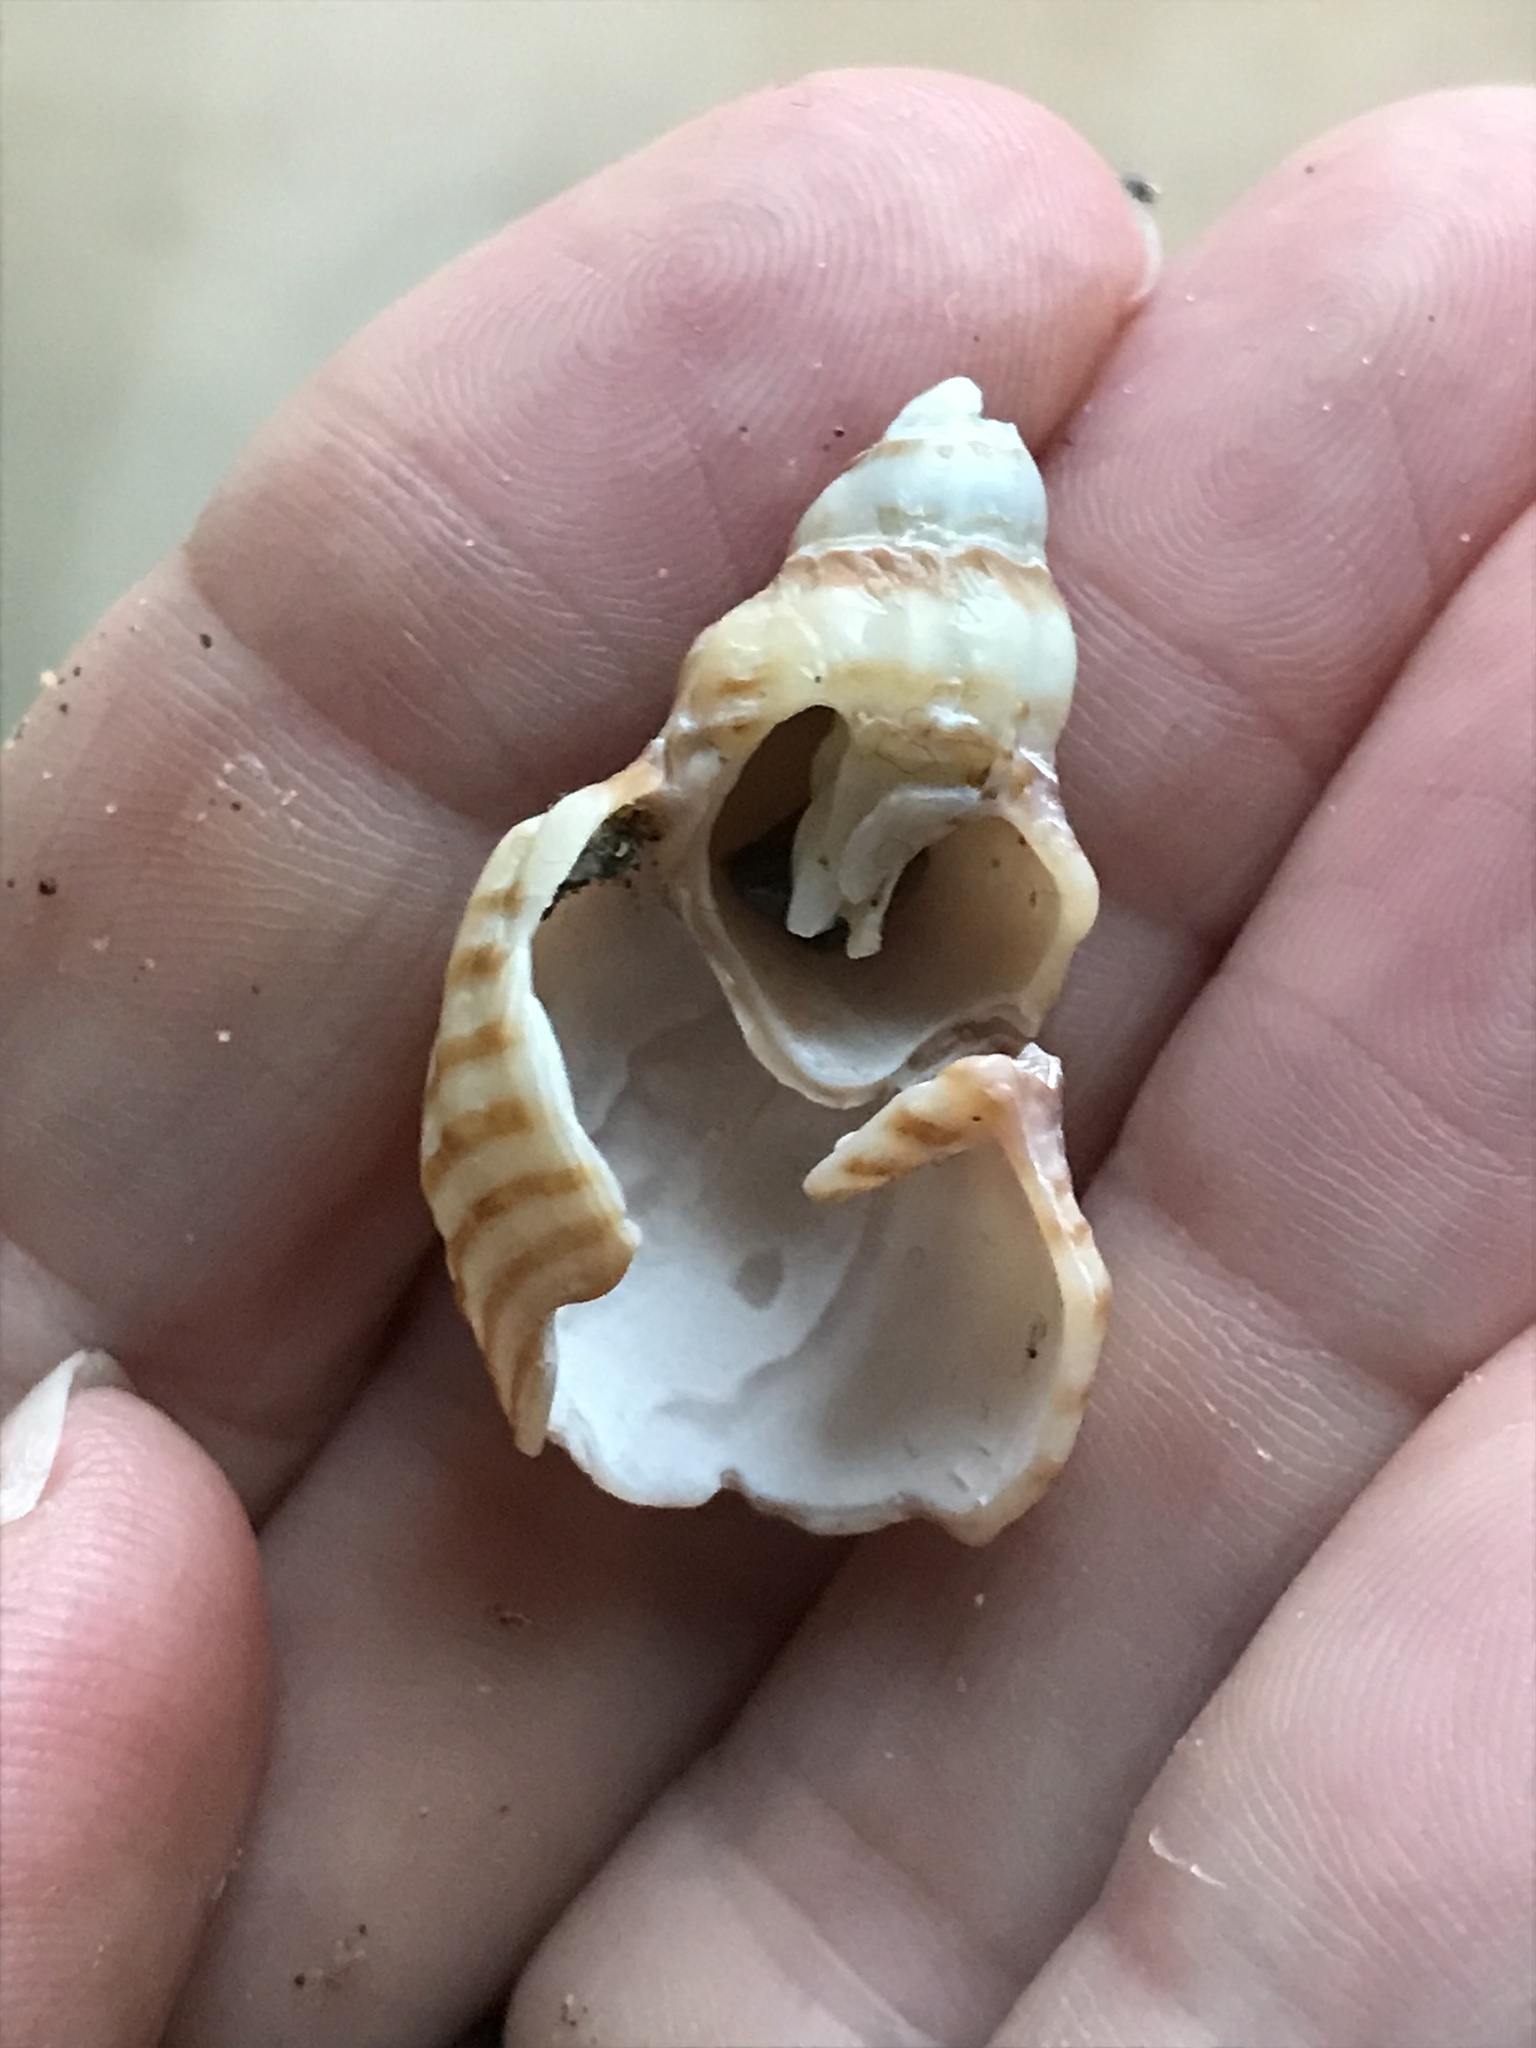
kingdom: Animalia
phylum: Mollusca
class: Gastropoda
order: Neogastropoda
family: Cancellariidae
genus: Cancellaria
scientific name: Cancellaria cooperii
